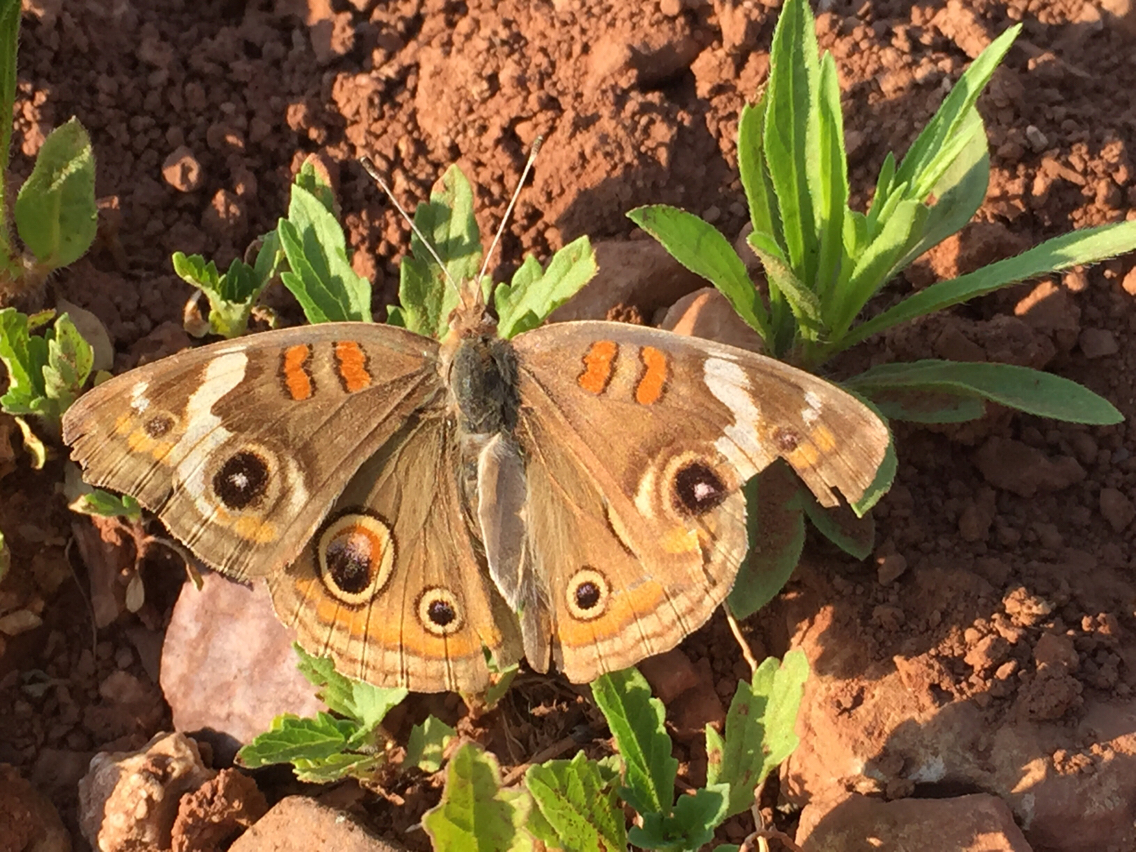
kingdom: Animalia
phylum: Arthropoda
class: Insecta
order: Lepidoptera
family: Nymphalidae
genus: Junonia
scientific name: Junonia grisea
